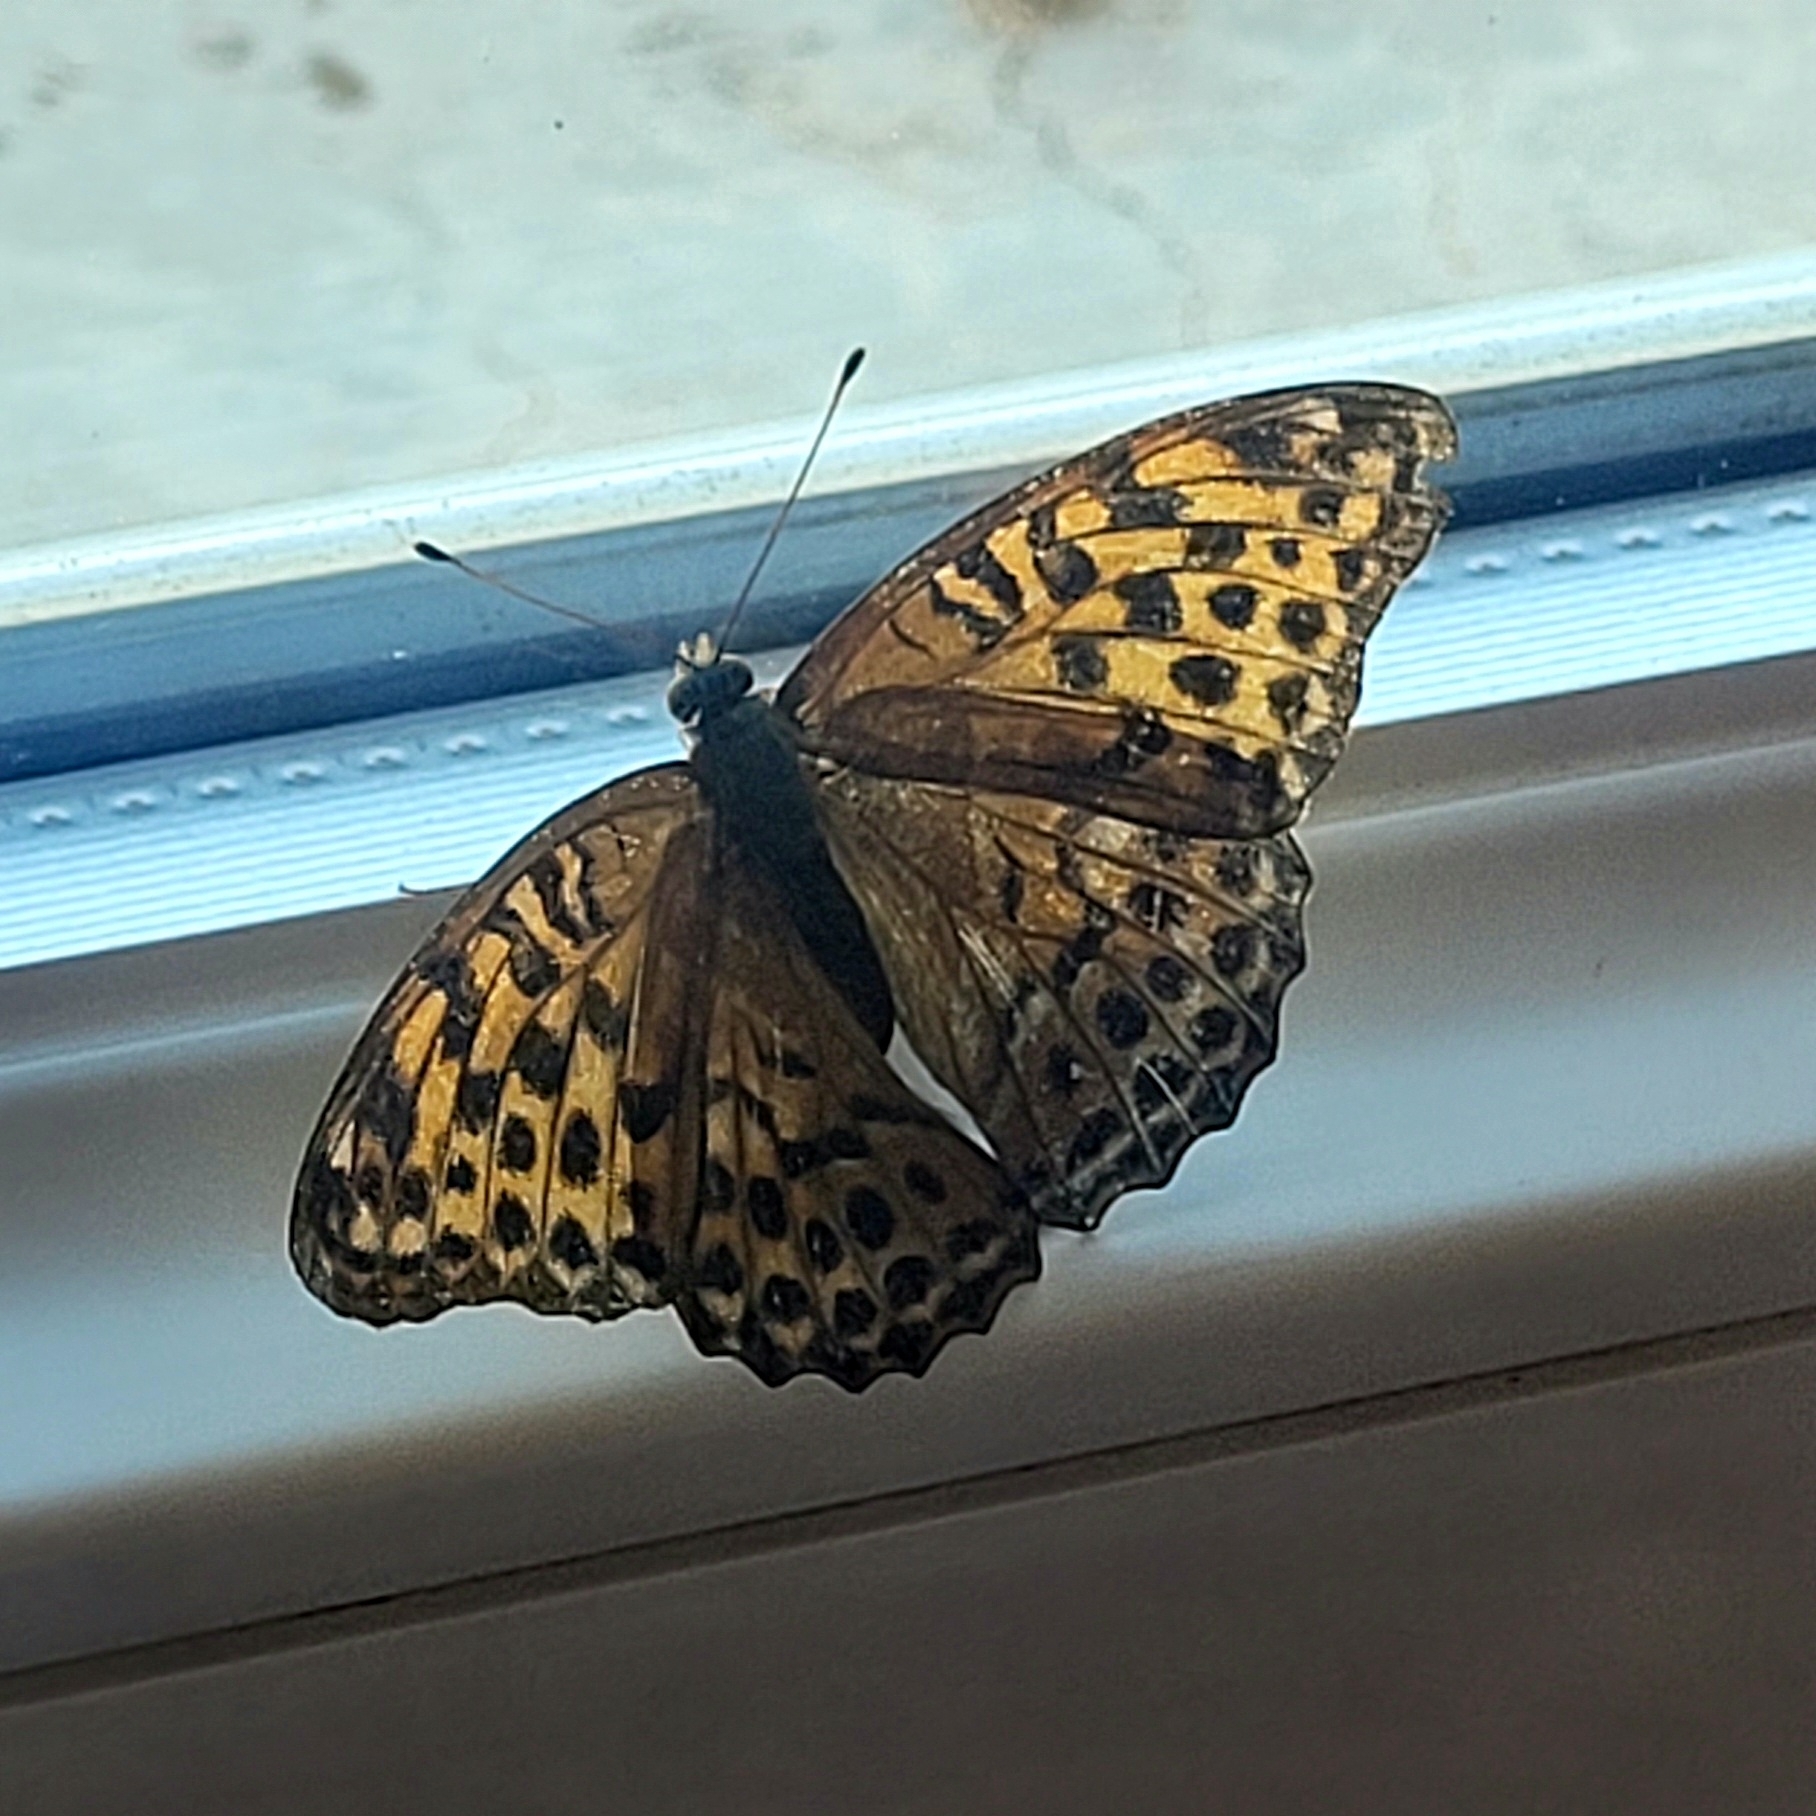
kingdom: Animalia
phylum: Arthropoda
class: Insecta
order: Lepidoptera
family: Nymphalidae
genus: Argynnis
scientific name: Argynnis paphia
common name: Silver-washed fritillary
